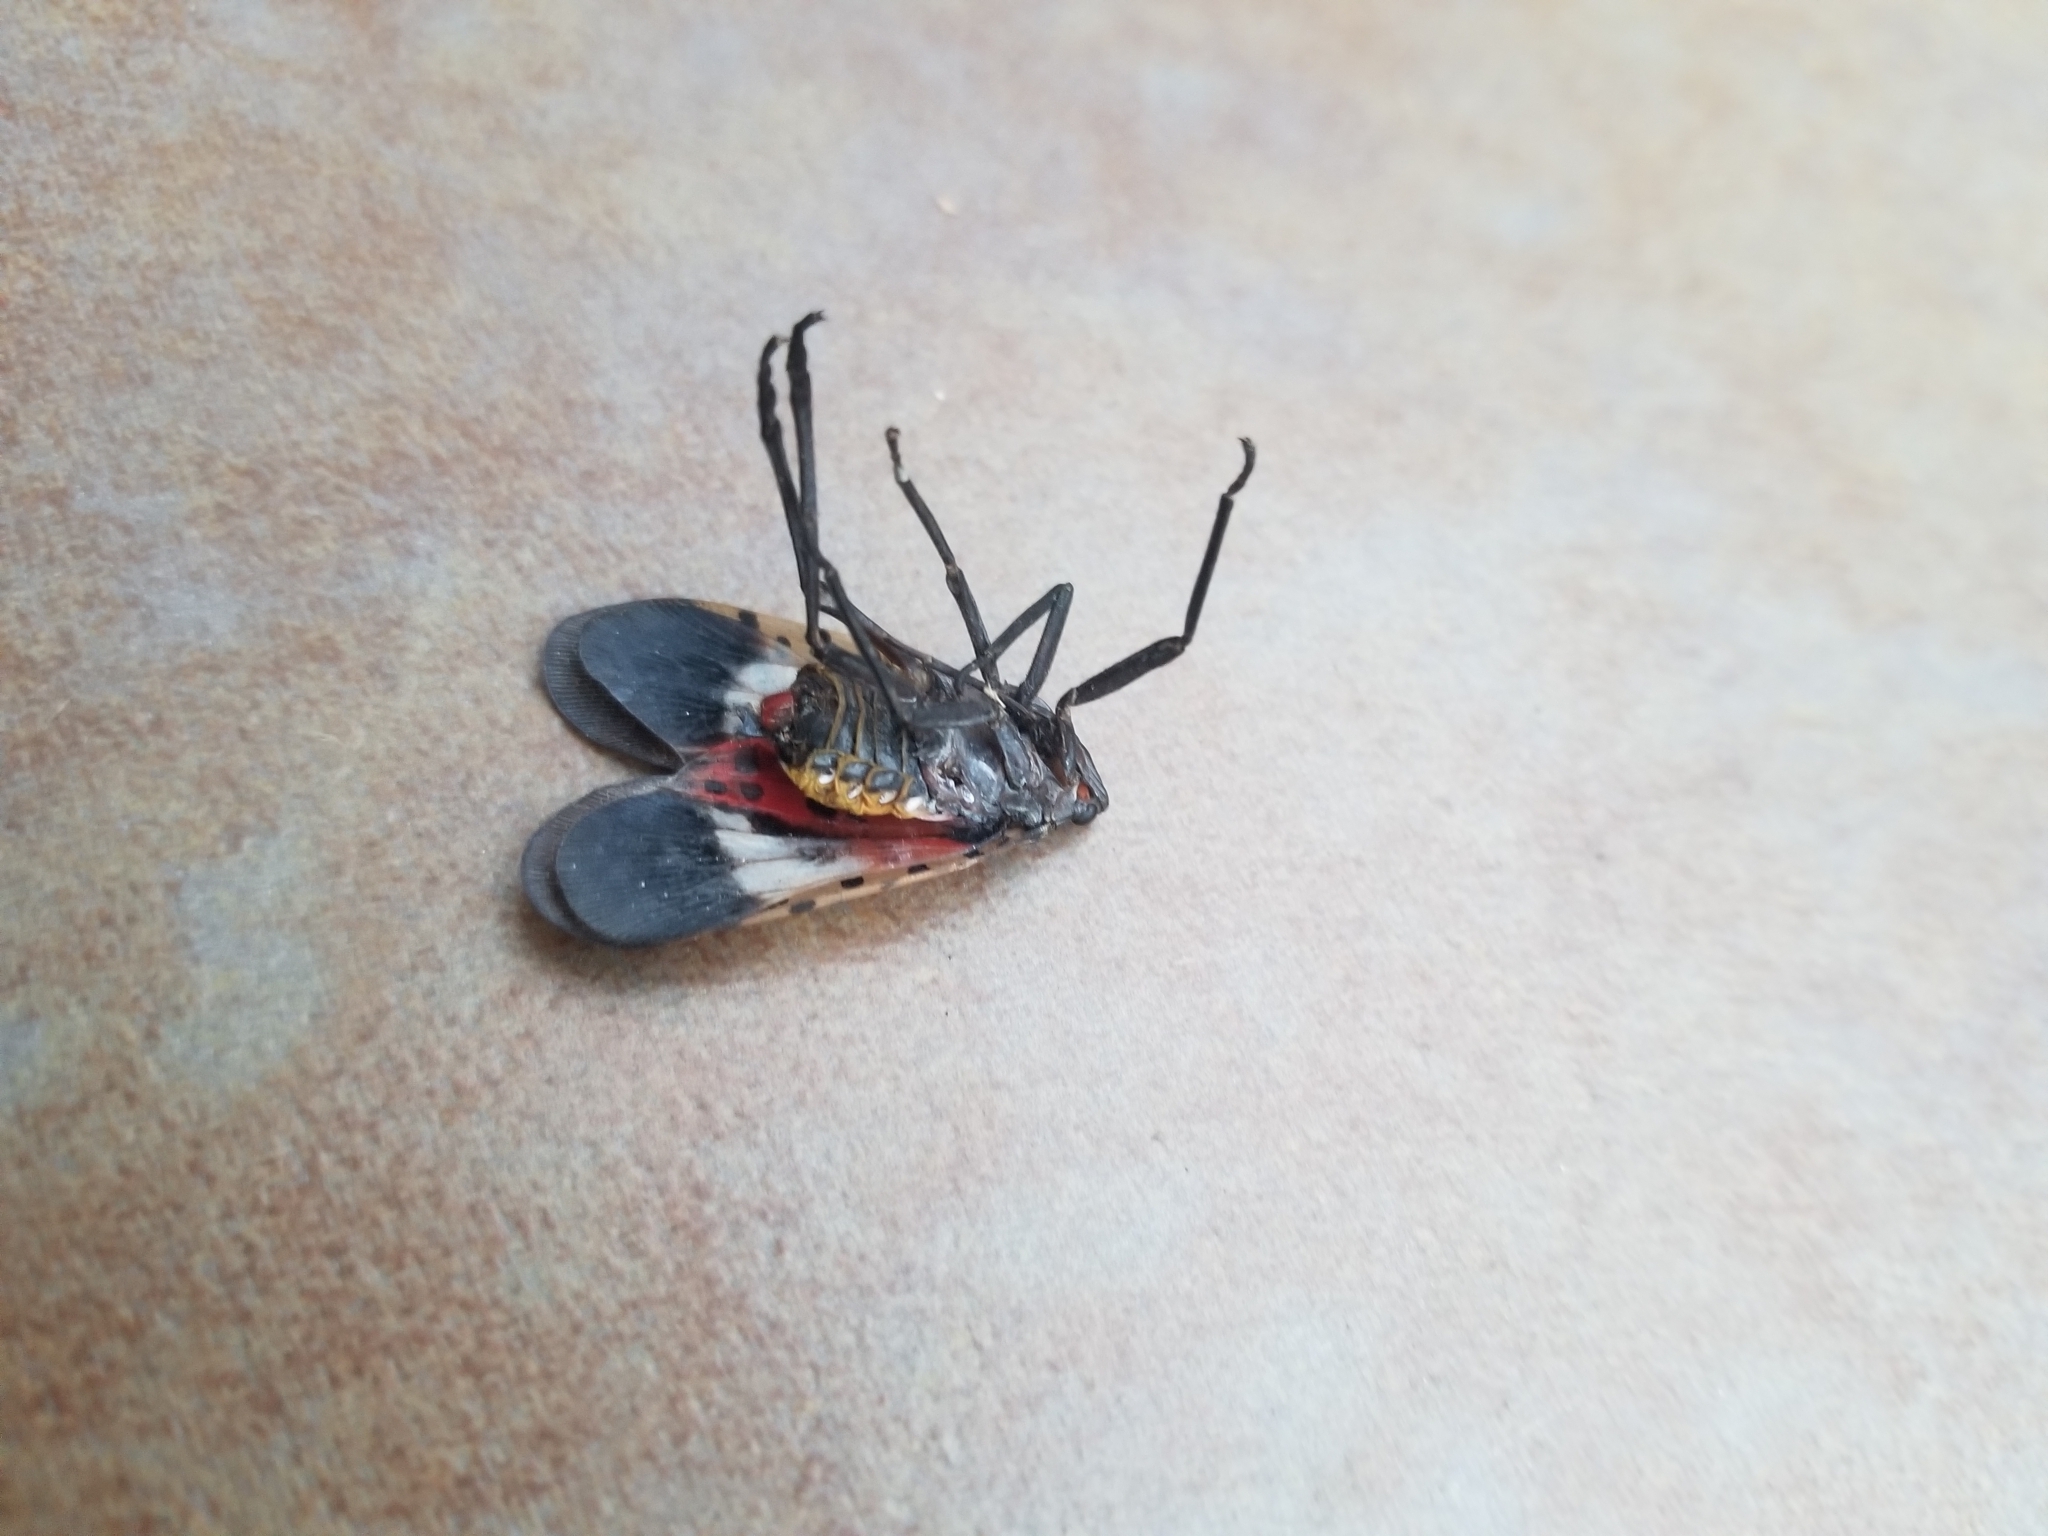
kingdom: Animalia
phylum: Arthropoda
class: Insecta
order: Hemiptera
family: Fulgoridae
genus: Lycorma
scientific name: Lycorma delicatula
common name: Spotted lanternfly
